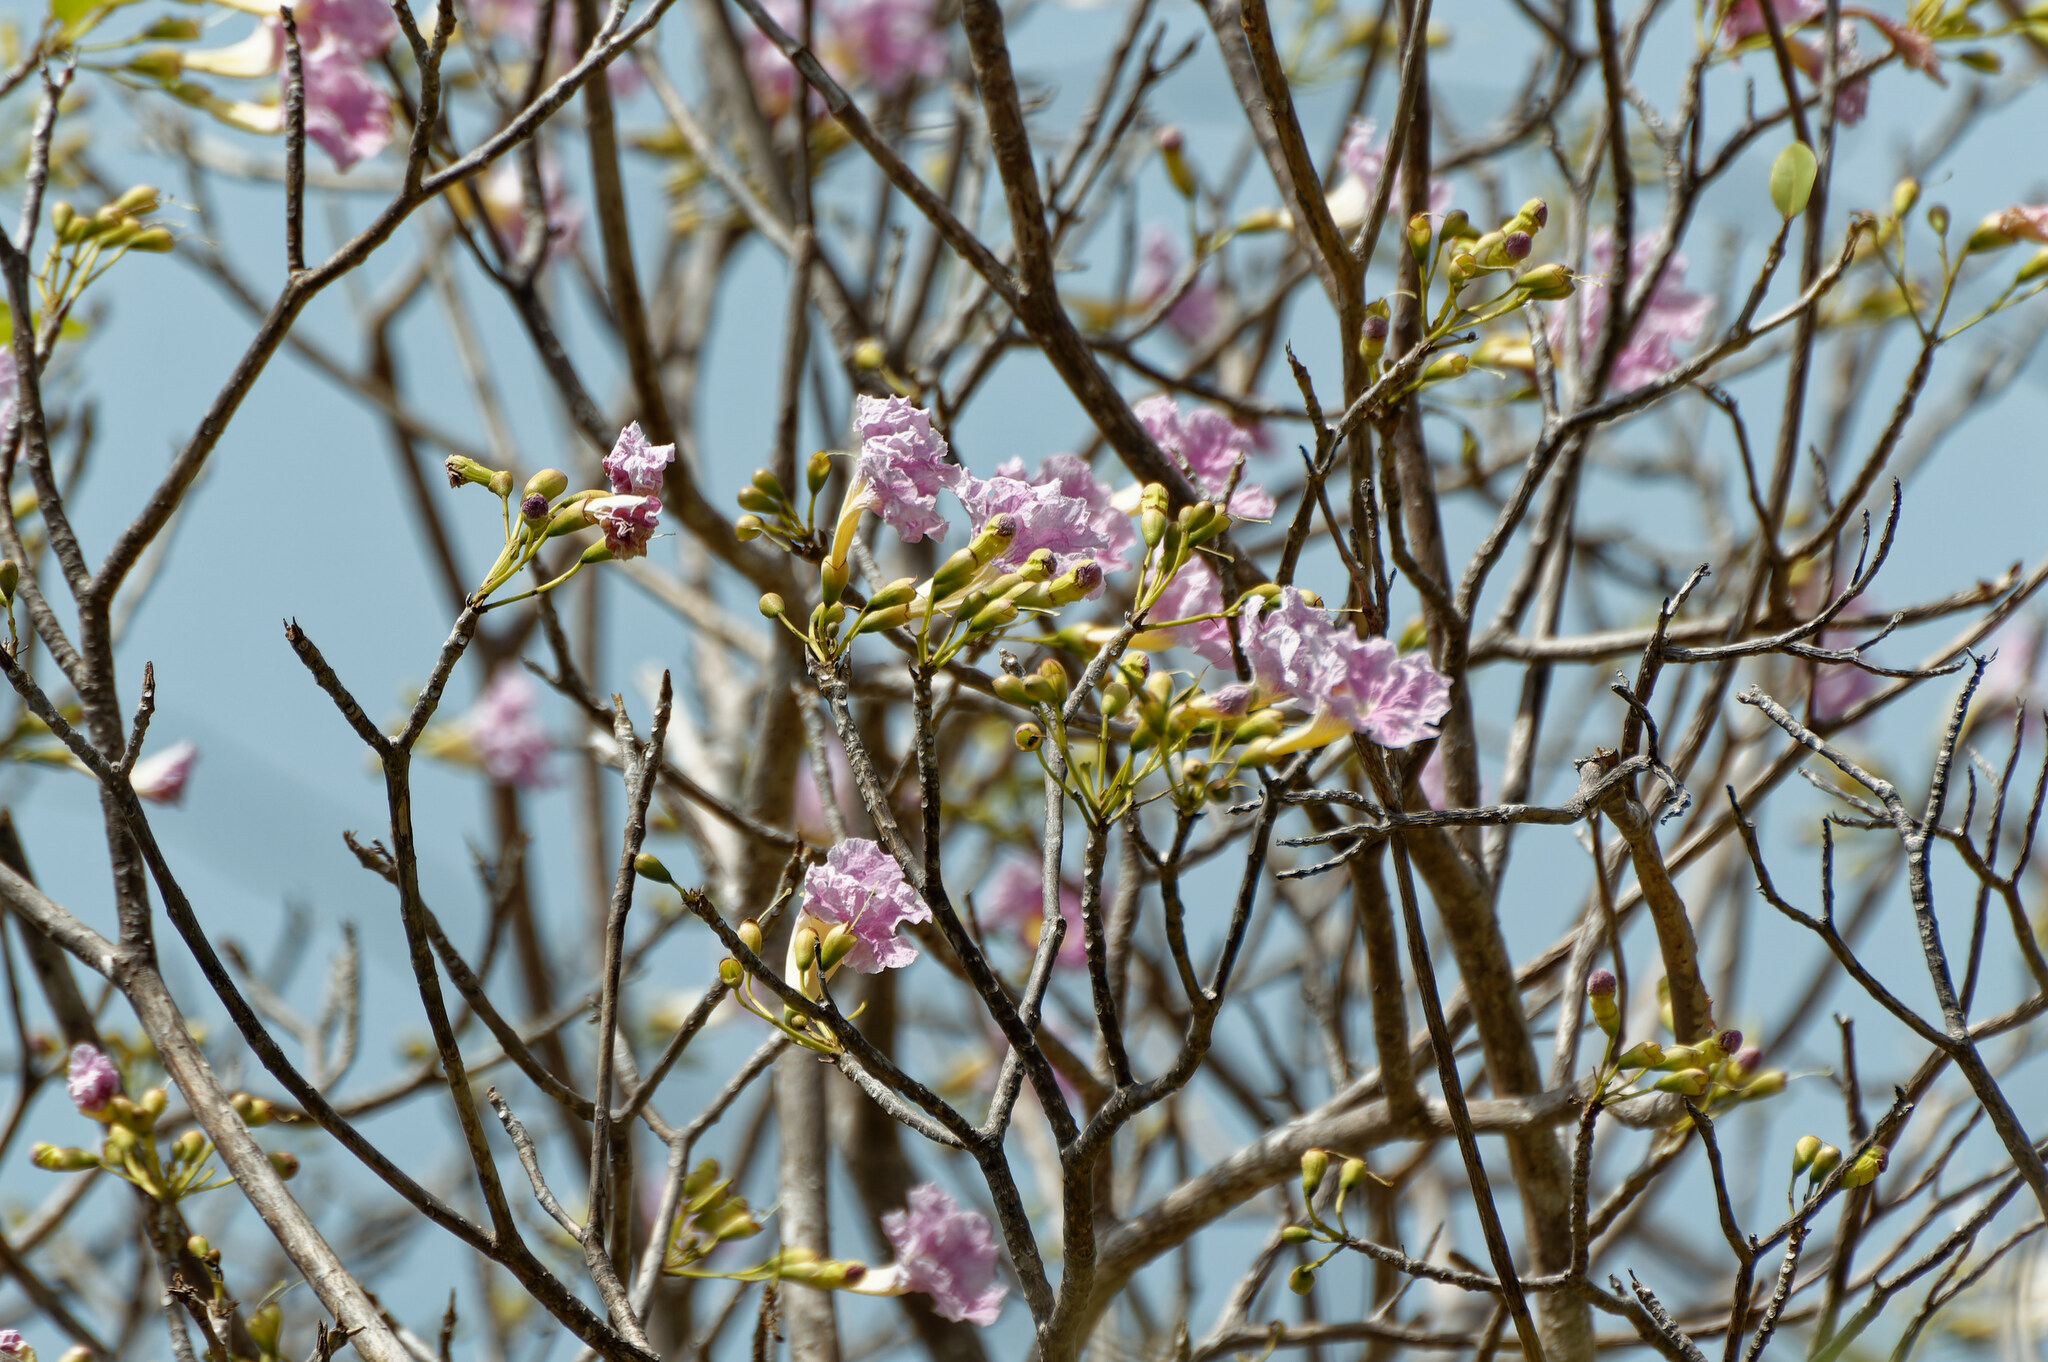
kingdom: Plantae
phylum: Tracheophyta
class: Magnoliopsida
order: Lamiales
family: Bignoniaceae
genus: Tabebuia
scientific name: Tabebuia heterophylla
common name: White cedar
